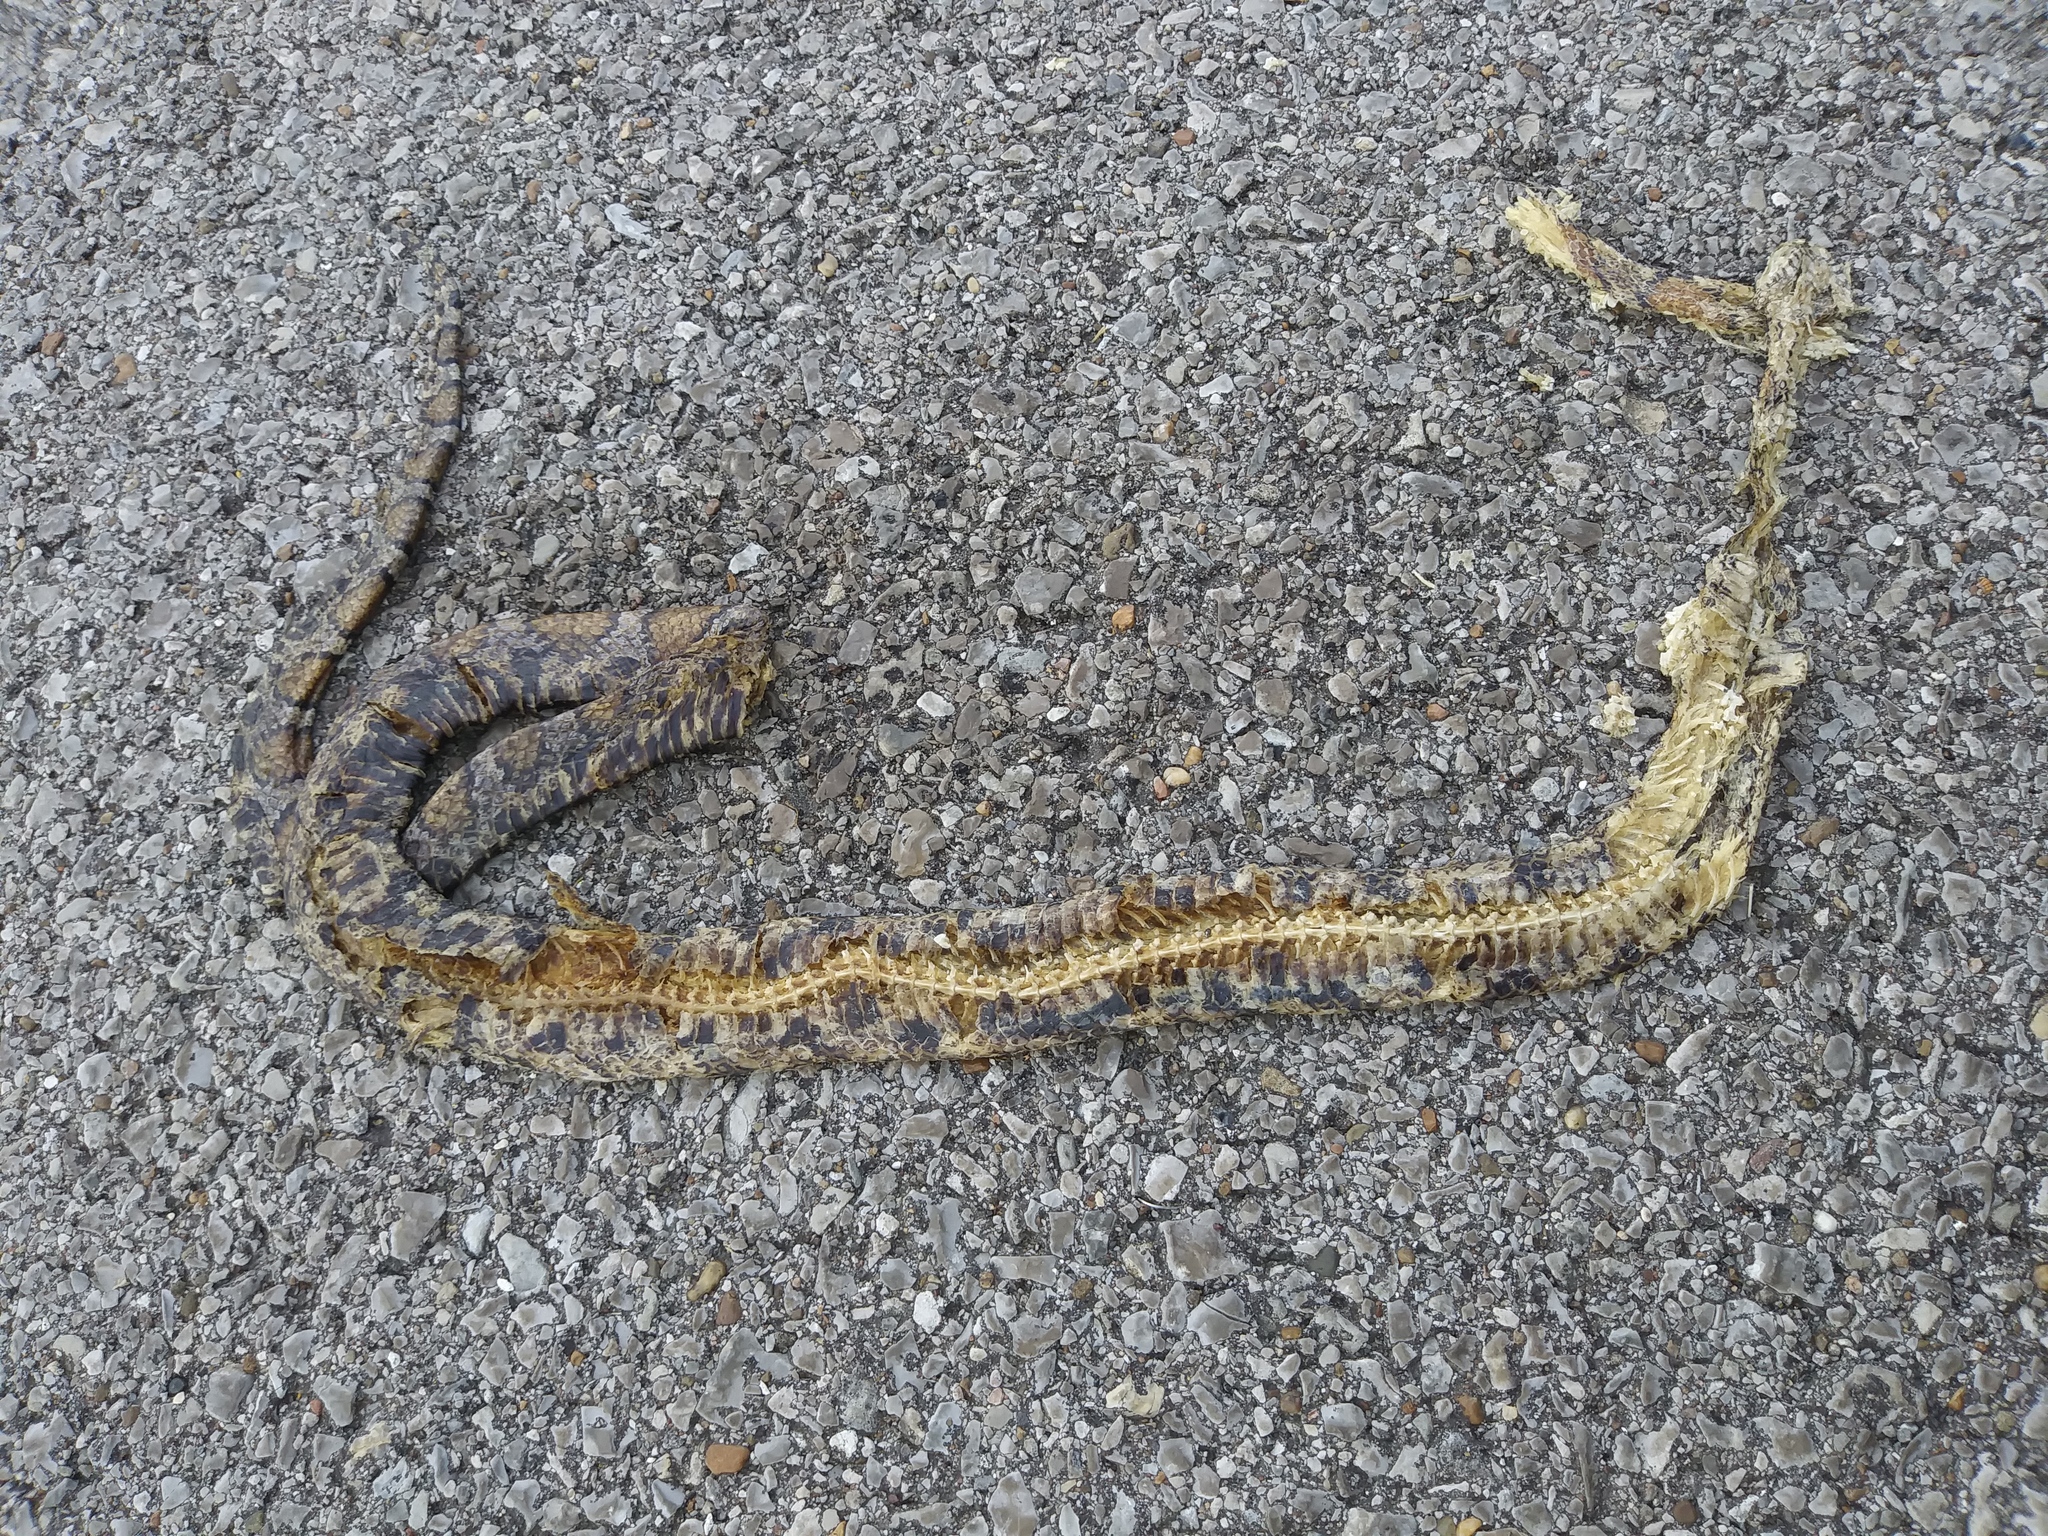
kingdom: Animalia
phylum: Chordata
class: Squamata
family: Colubridae
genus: Lampropeltis
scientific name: Lampropeltis triangulum
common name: Eastern milksnake
